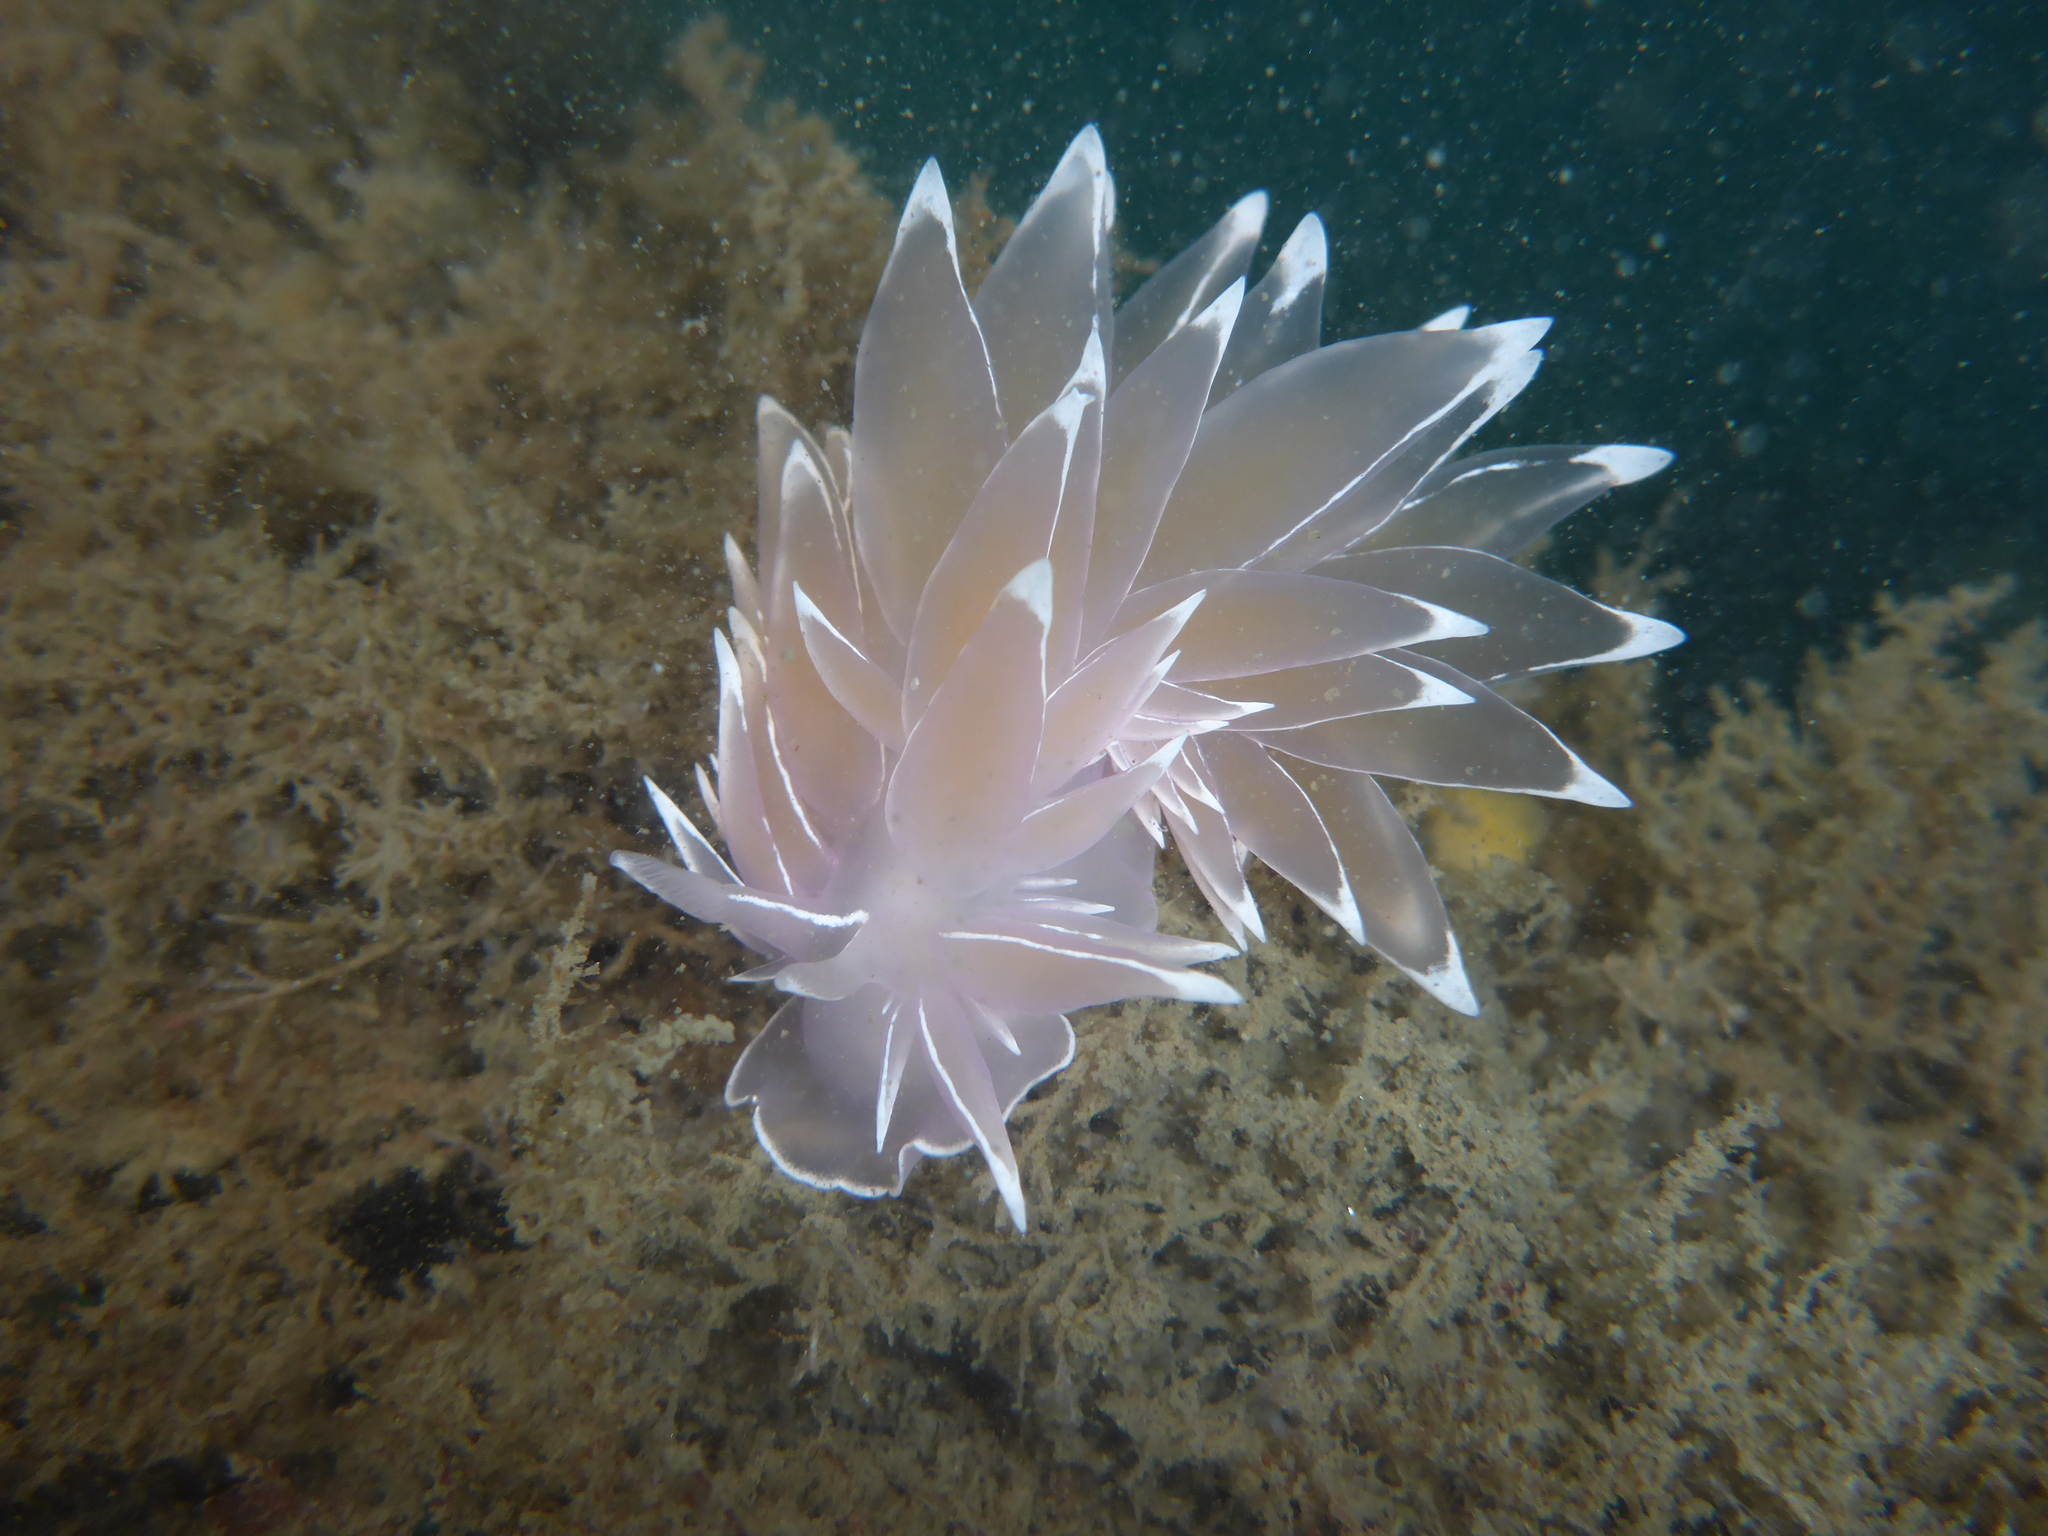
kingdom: Animalia
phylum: Mollusca
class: Gastropoda
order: Nudibranchia
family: Dironidae
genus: Dirona
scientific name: Dirona albolineata
